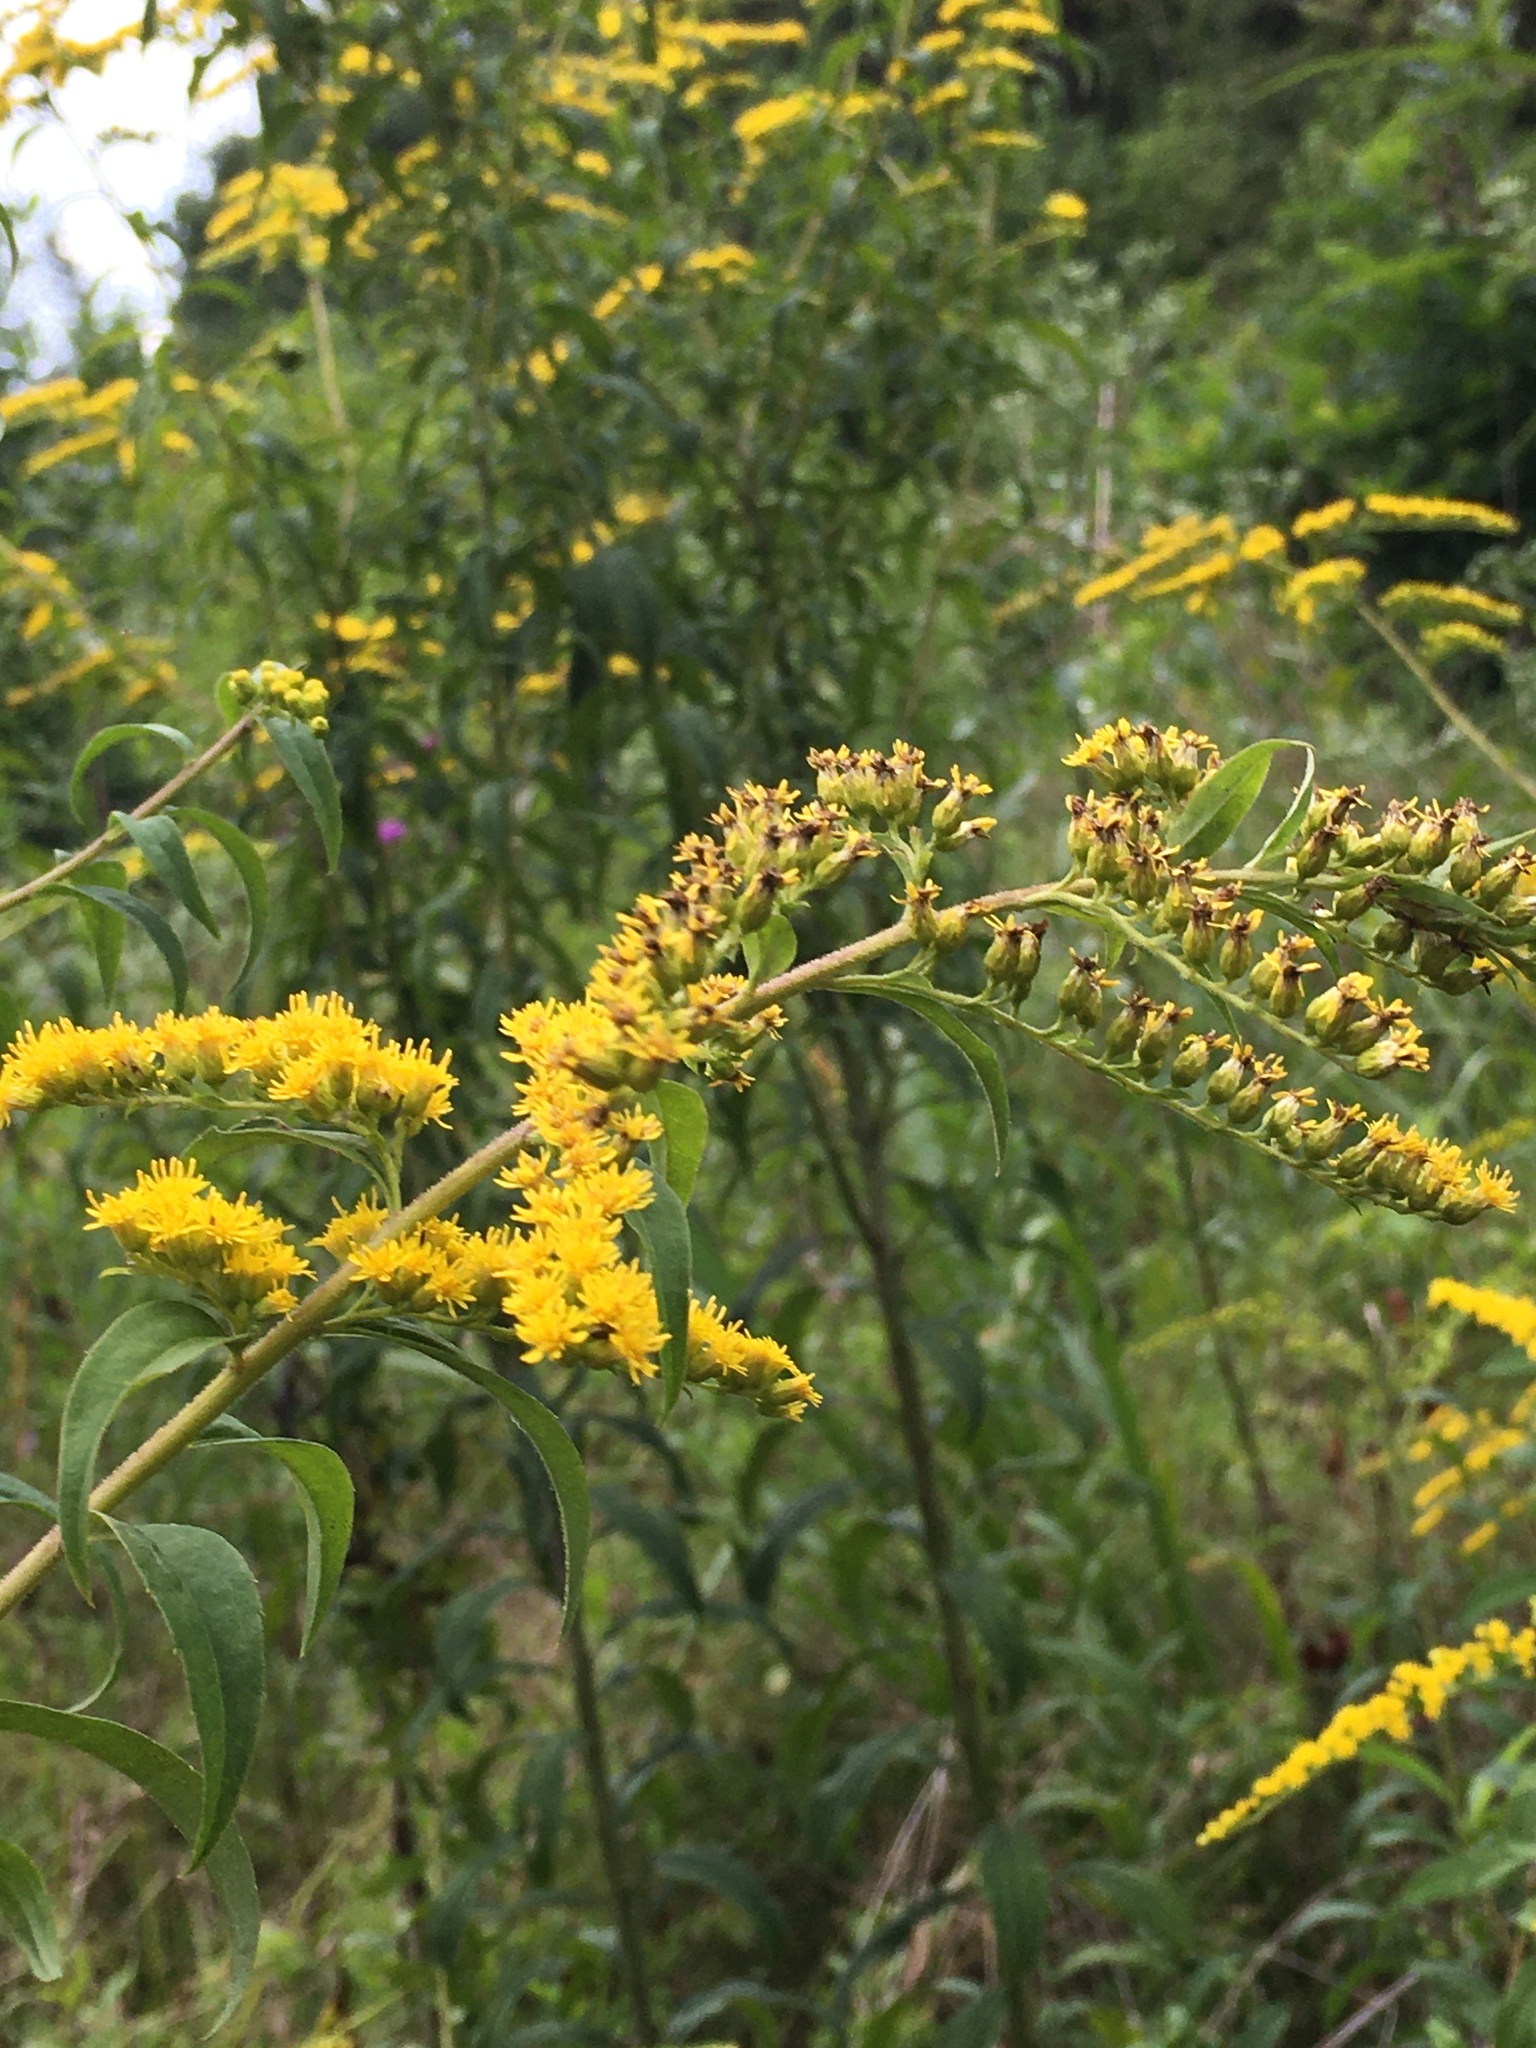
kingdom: Plantae
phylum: Tracheophyta
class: Magnoliopsida
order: Asterales
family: Asteraceae
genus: Solidago
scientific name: Solidago altissima
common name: Late goldenrod
